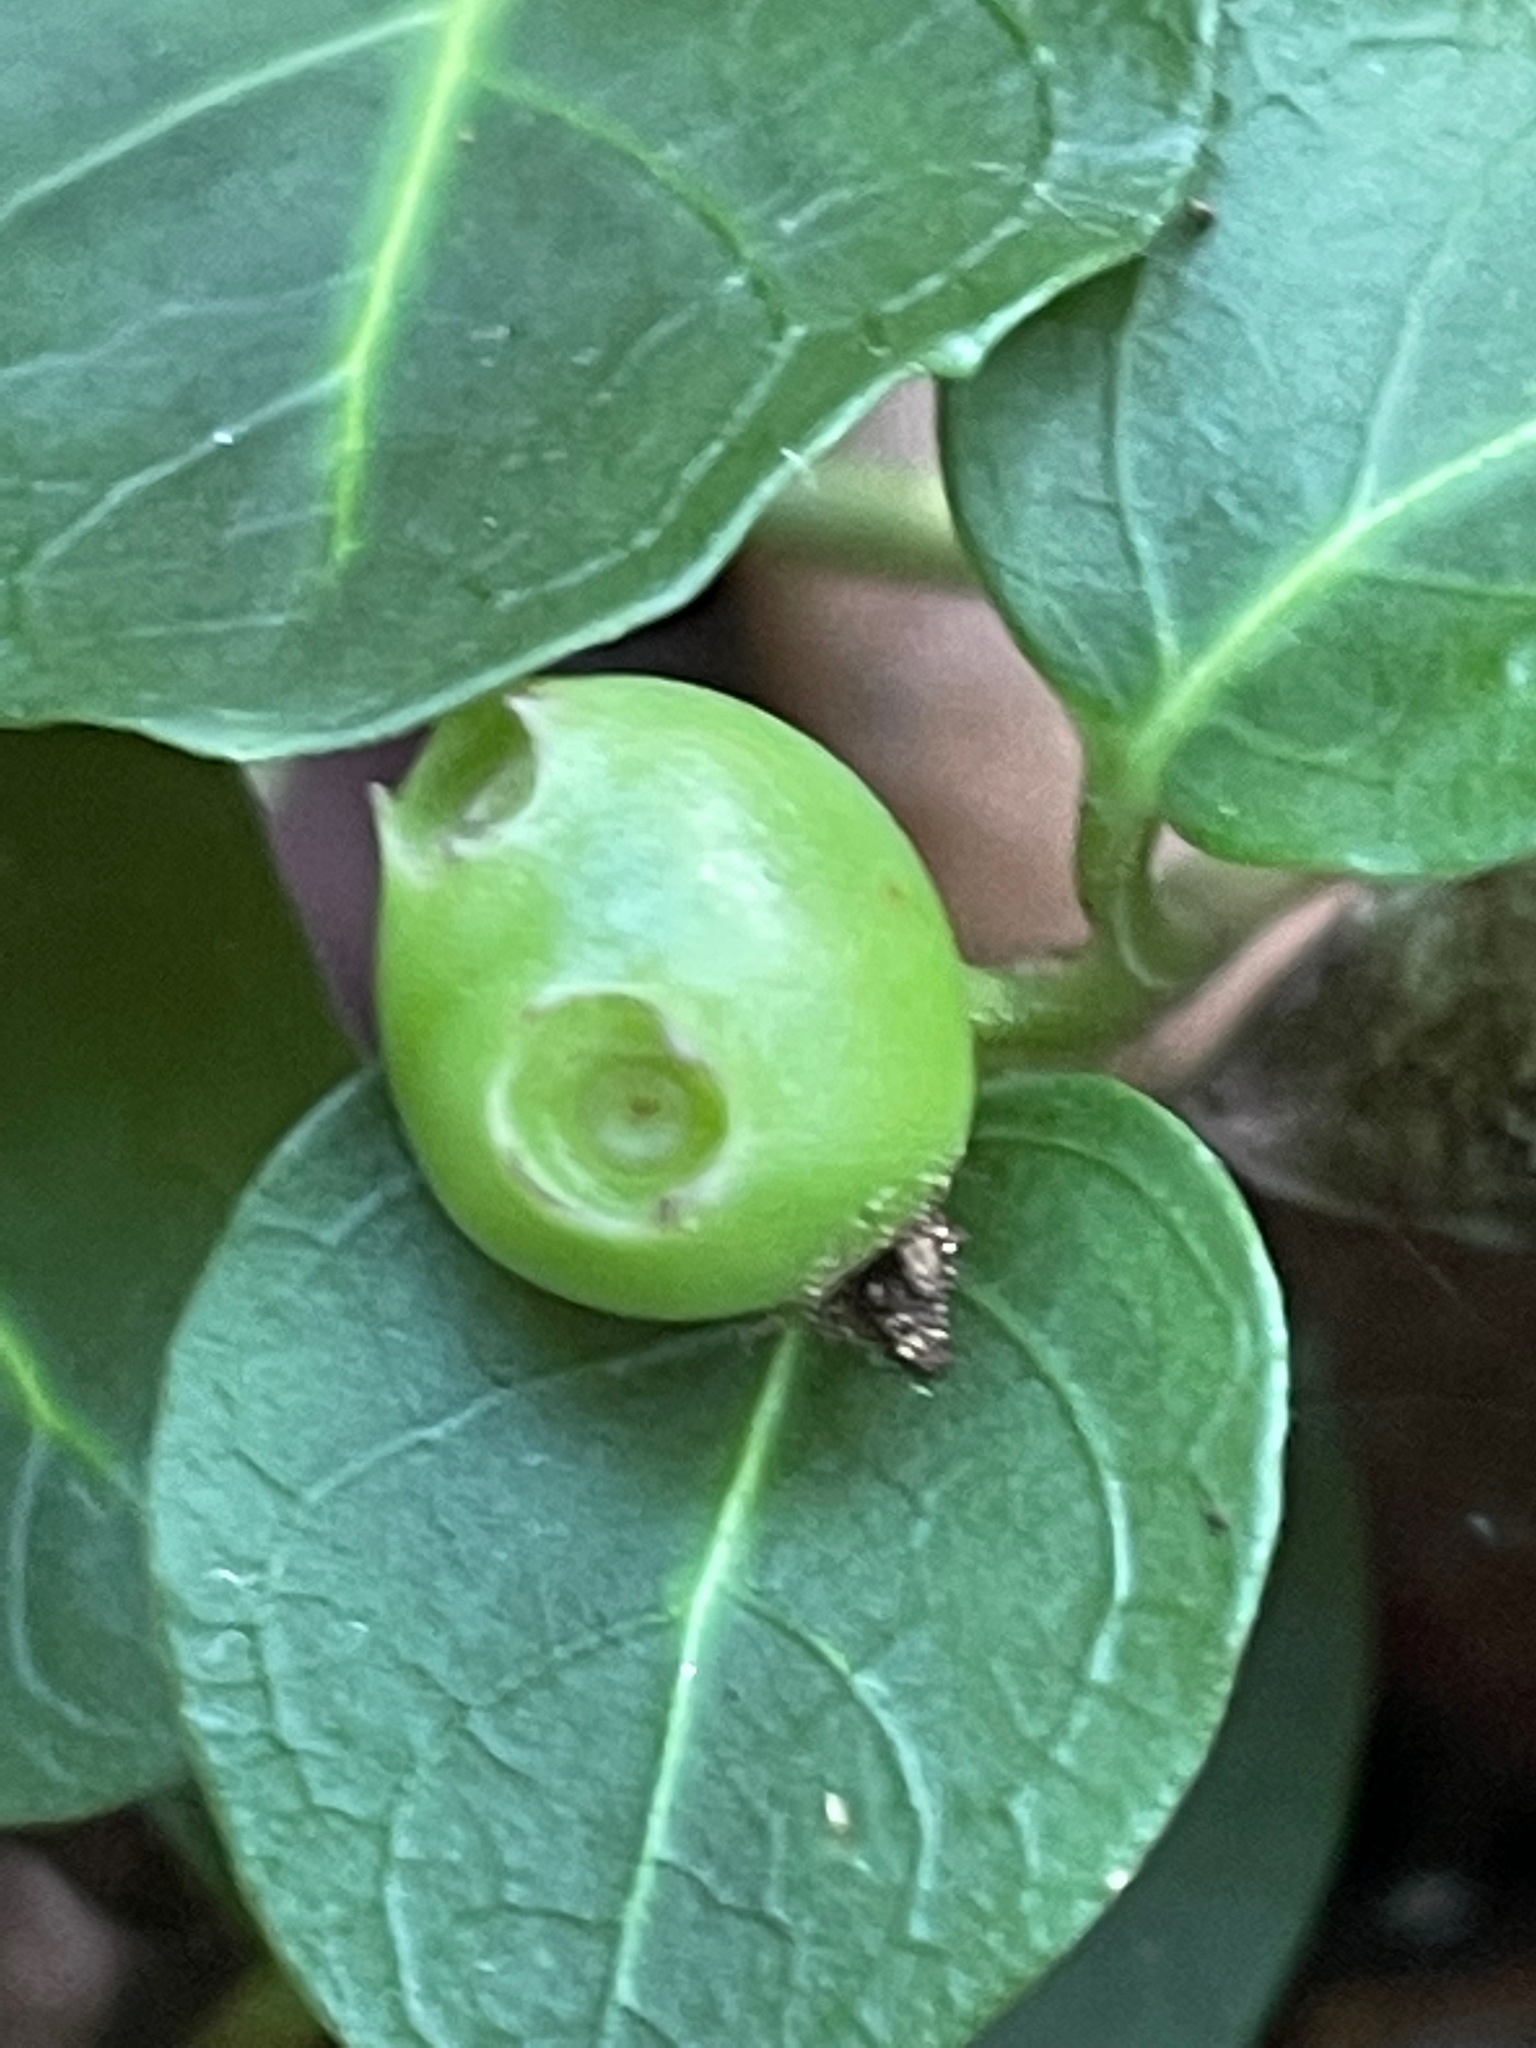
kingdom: Plantae
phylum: Tracheophyta
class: Magnoliopsida
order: Gentianales
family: Rubiaceae
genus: Mitchella
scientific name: Mitchella repens
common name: Partridge-berry
